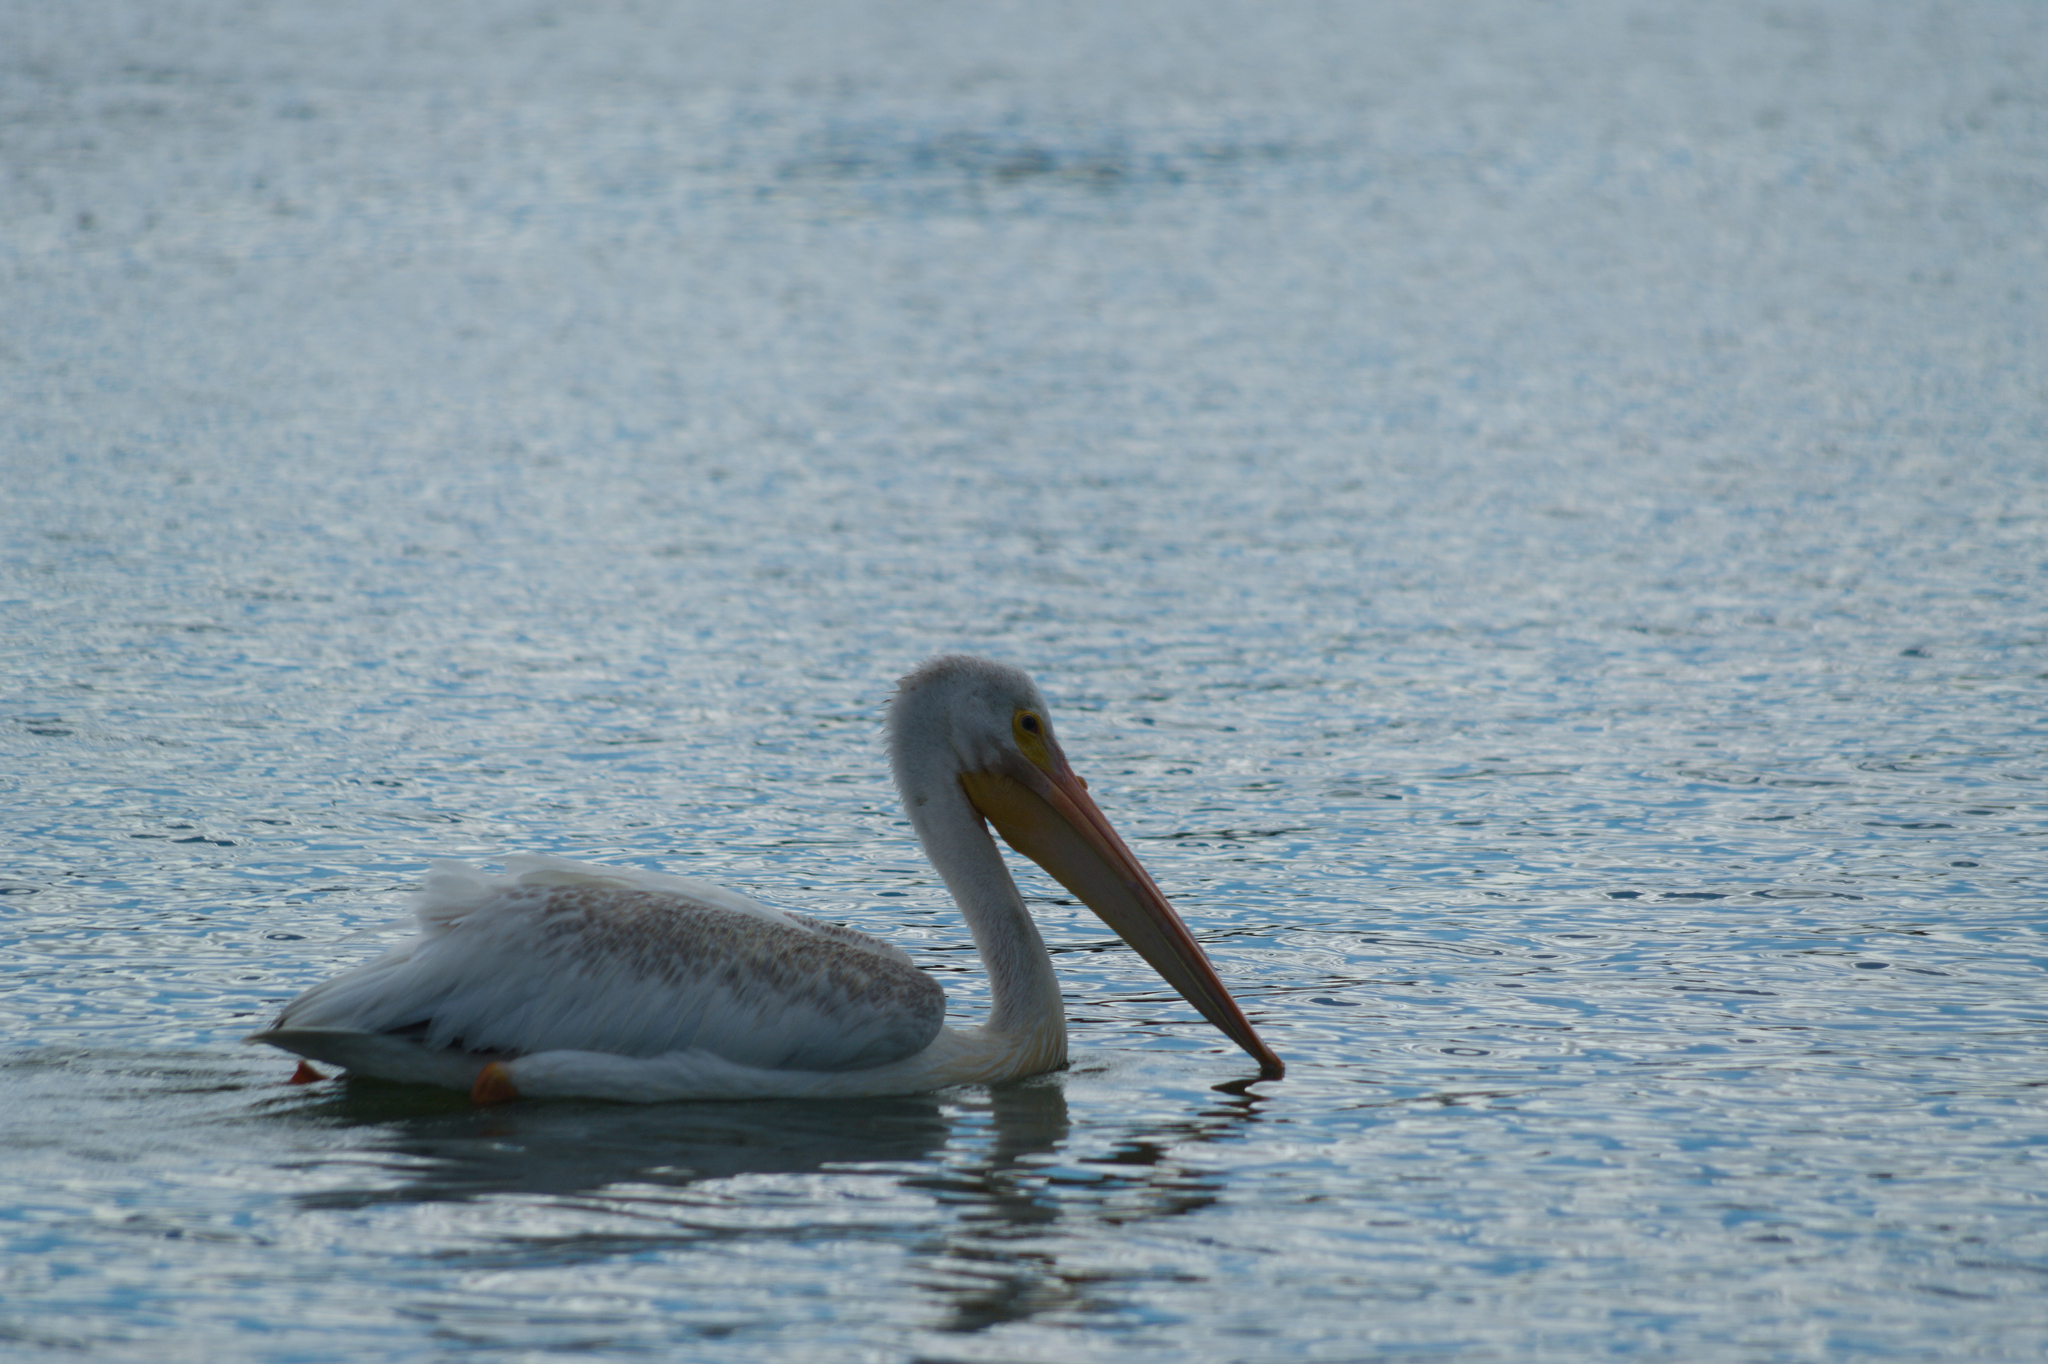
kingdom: Animalia
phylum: Chordata
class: Aves
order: Pelecaniformes
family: Pelecanidae
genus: Pelecanus
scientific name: Pelecanus erythrorhynchos
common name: American white pelican
